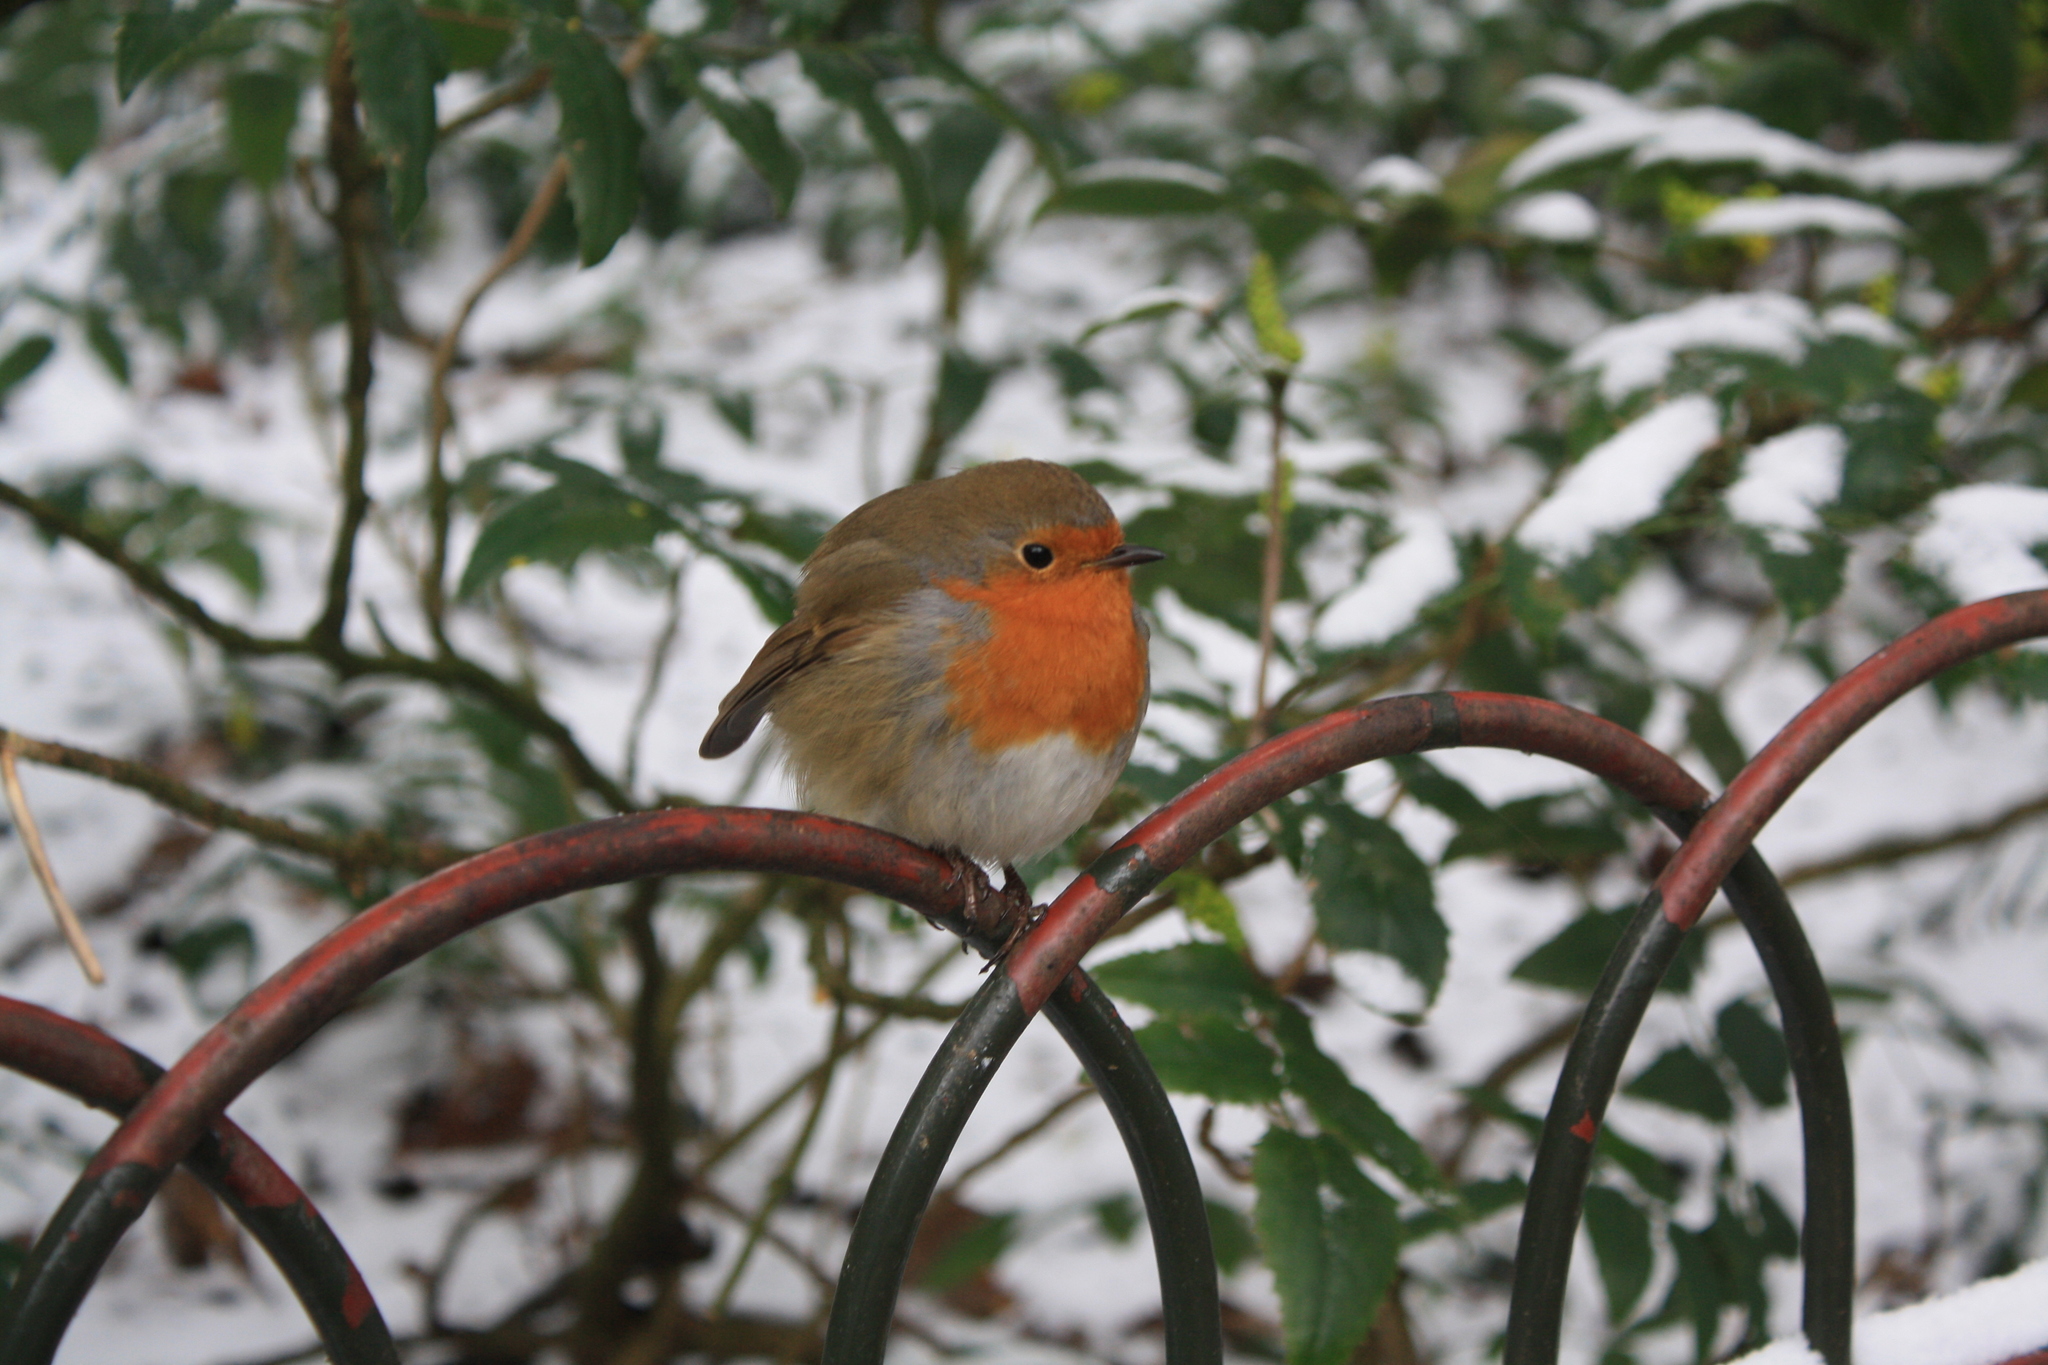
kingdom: Animalia
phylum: Chordata
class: Aves
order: Passeriformes
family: Muscicapidae
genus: Erithacus
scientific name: Erithacus rubecula
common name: European robin
